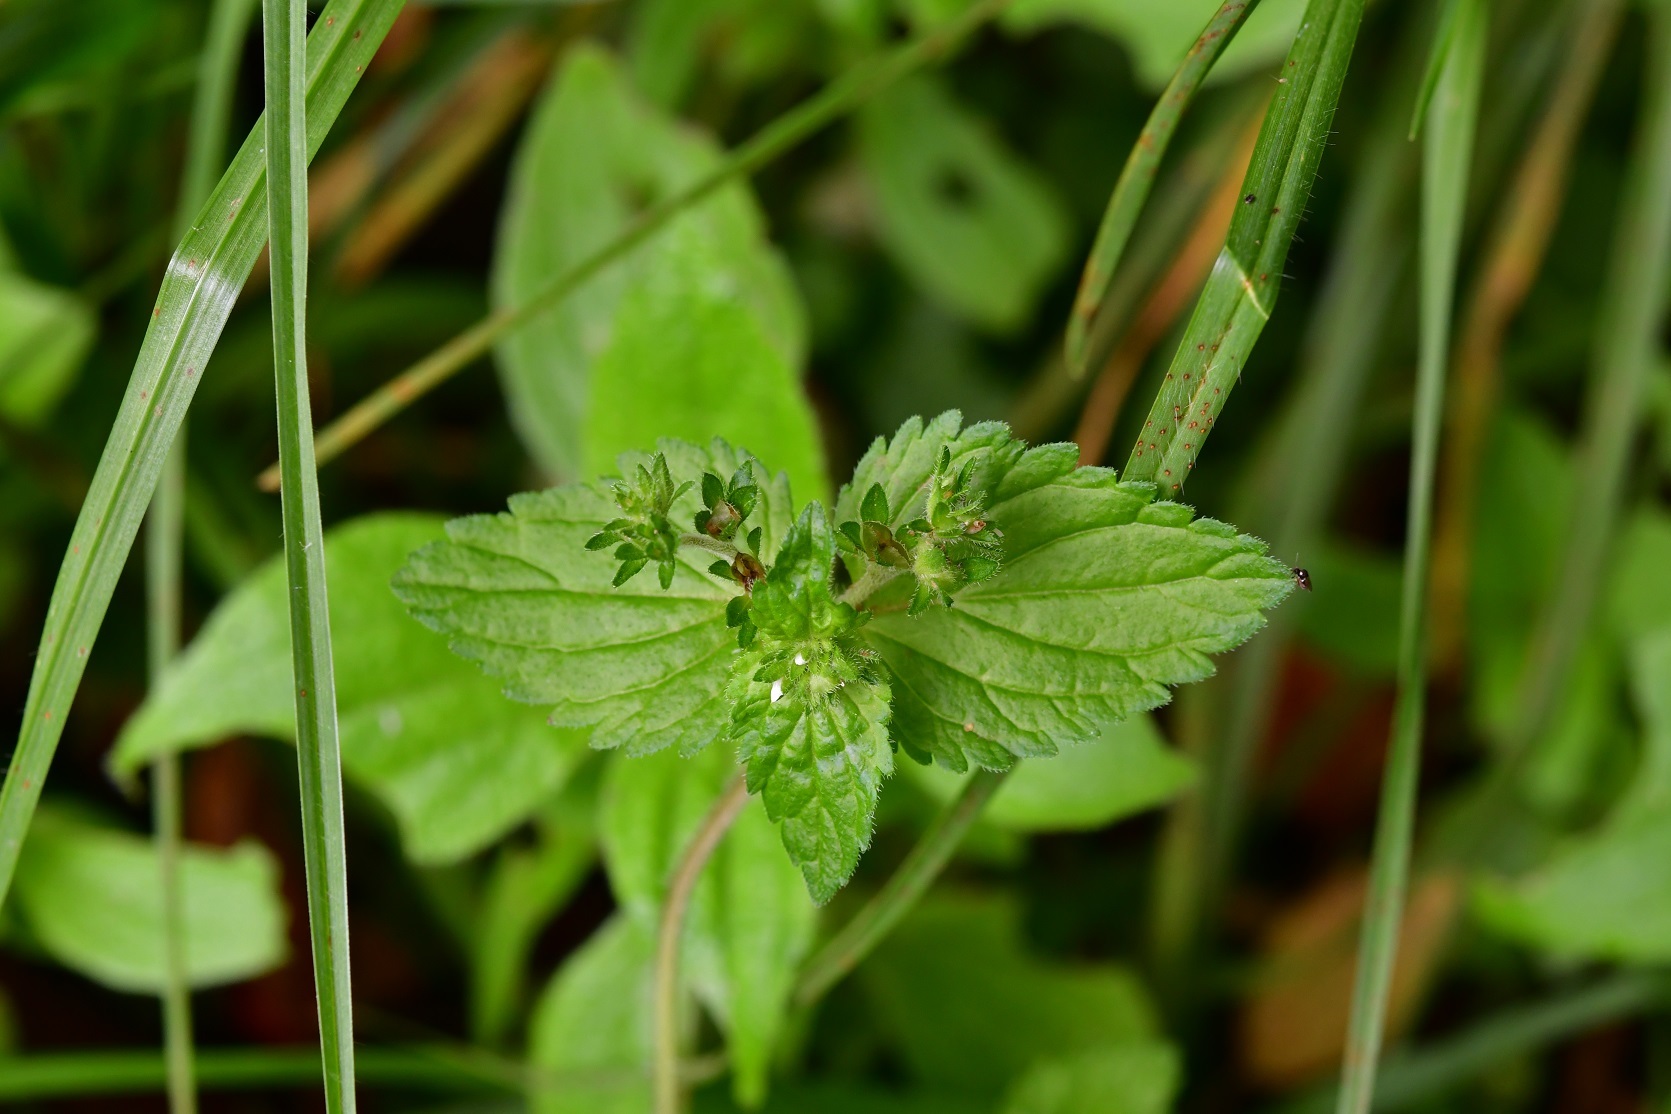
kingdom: Plantae
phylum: Tracheophyta
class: Magnoliopsida
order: Lamiales
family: Plantaginaceae
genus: Veronica
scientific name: Veronica javanica
